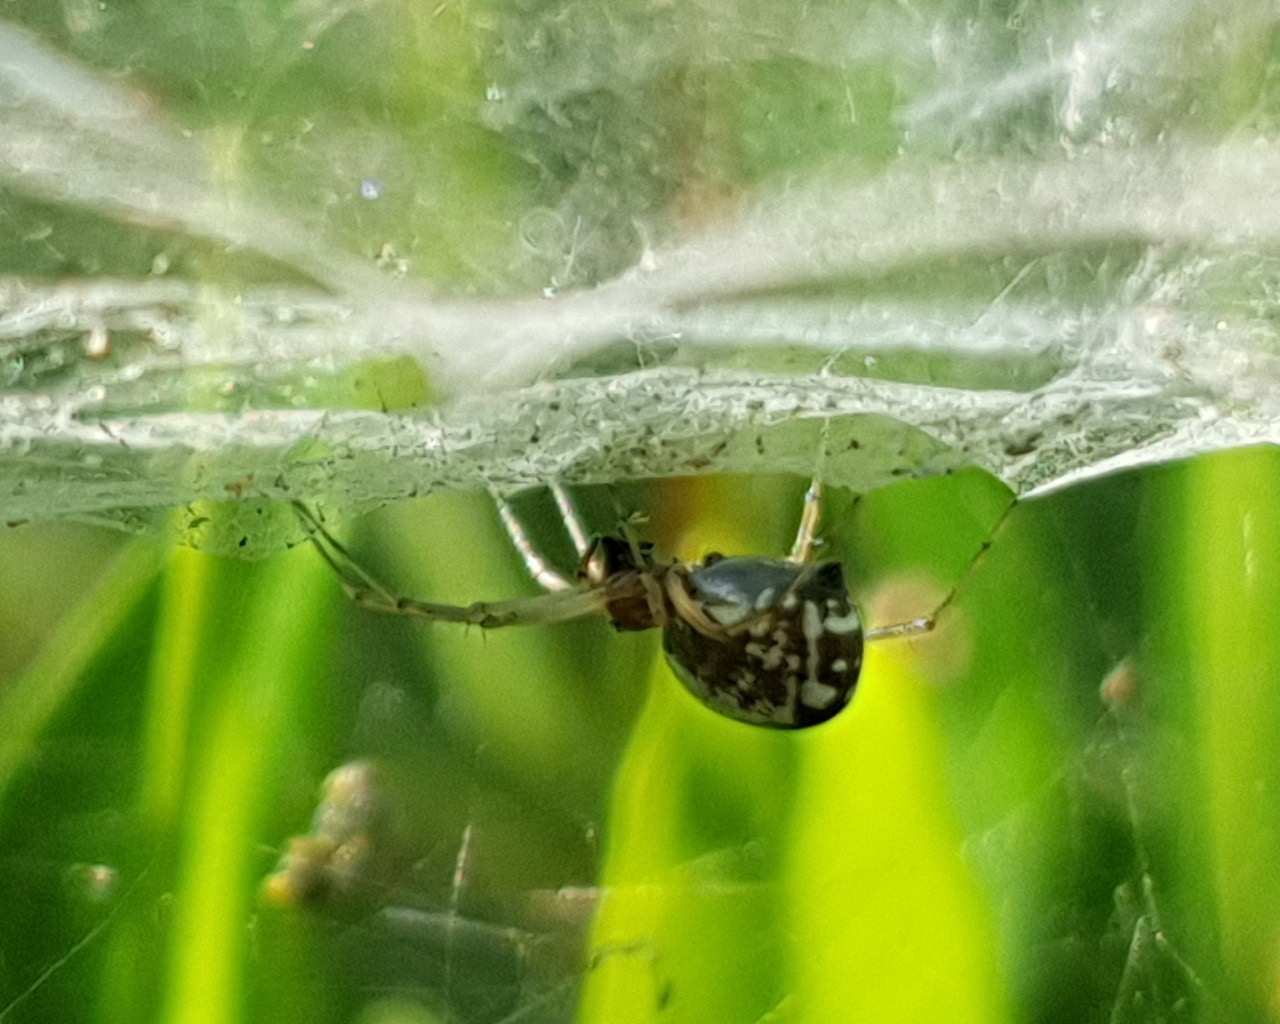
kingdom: Animalia
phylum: Arthropoda
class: Arachnida
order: Araneae
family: Linyphiidae
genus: Frontinellina
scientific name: Frontinellina frutetorum
